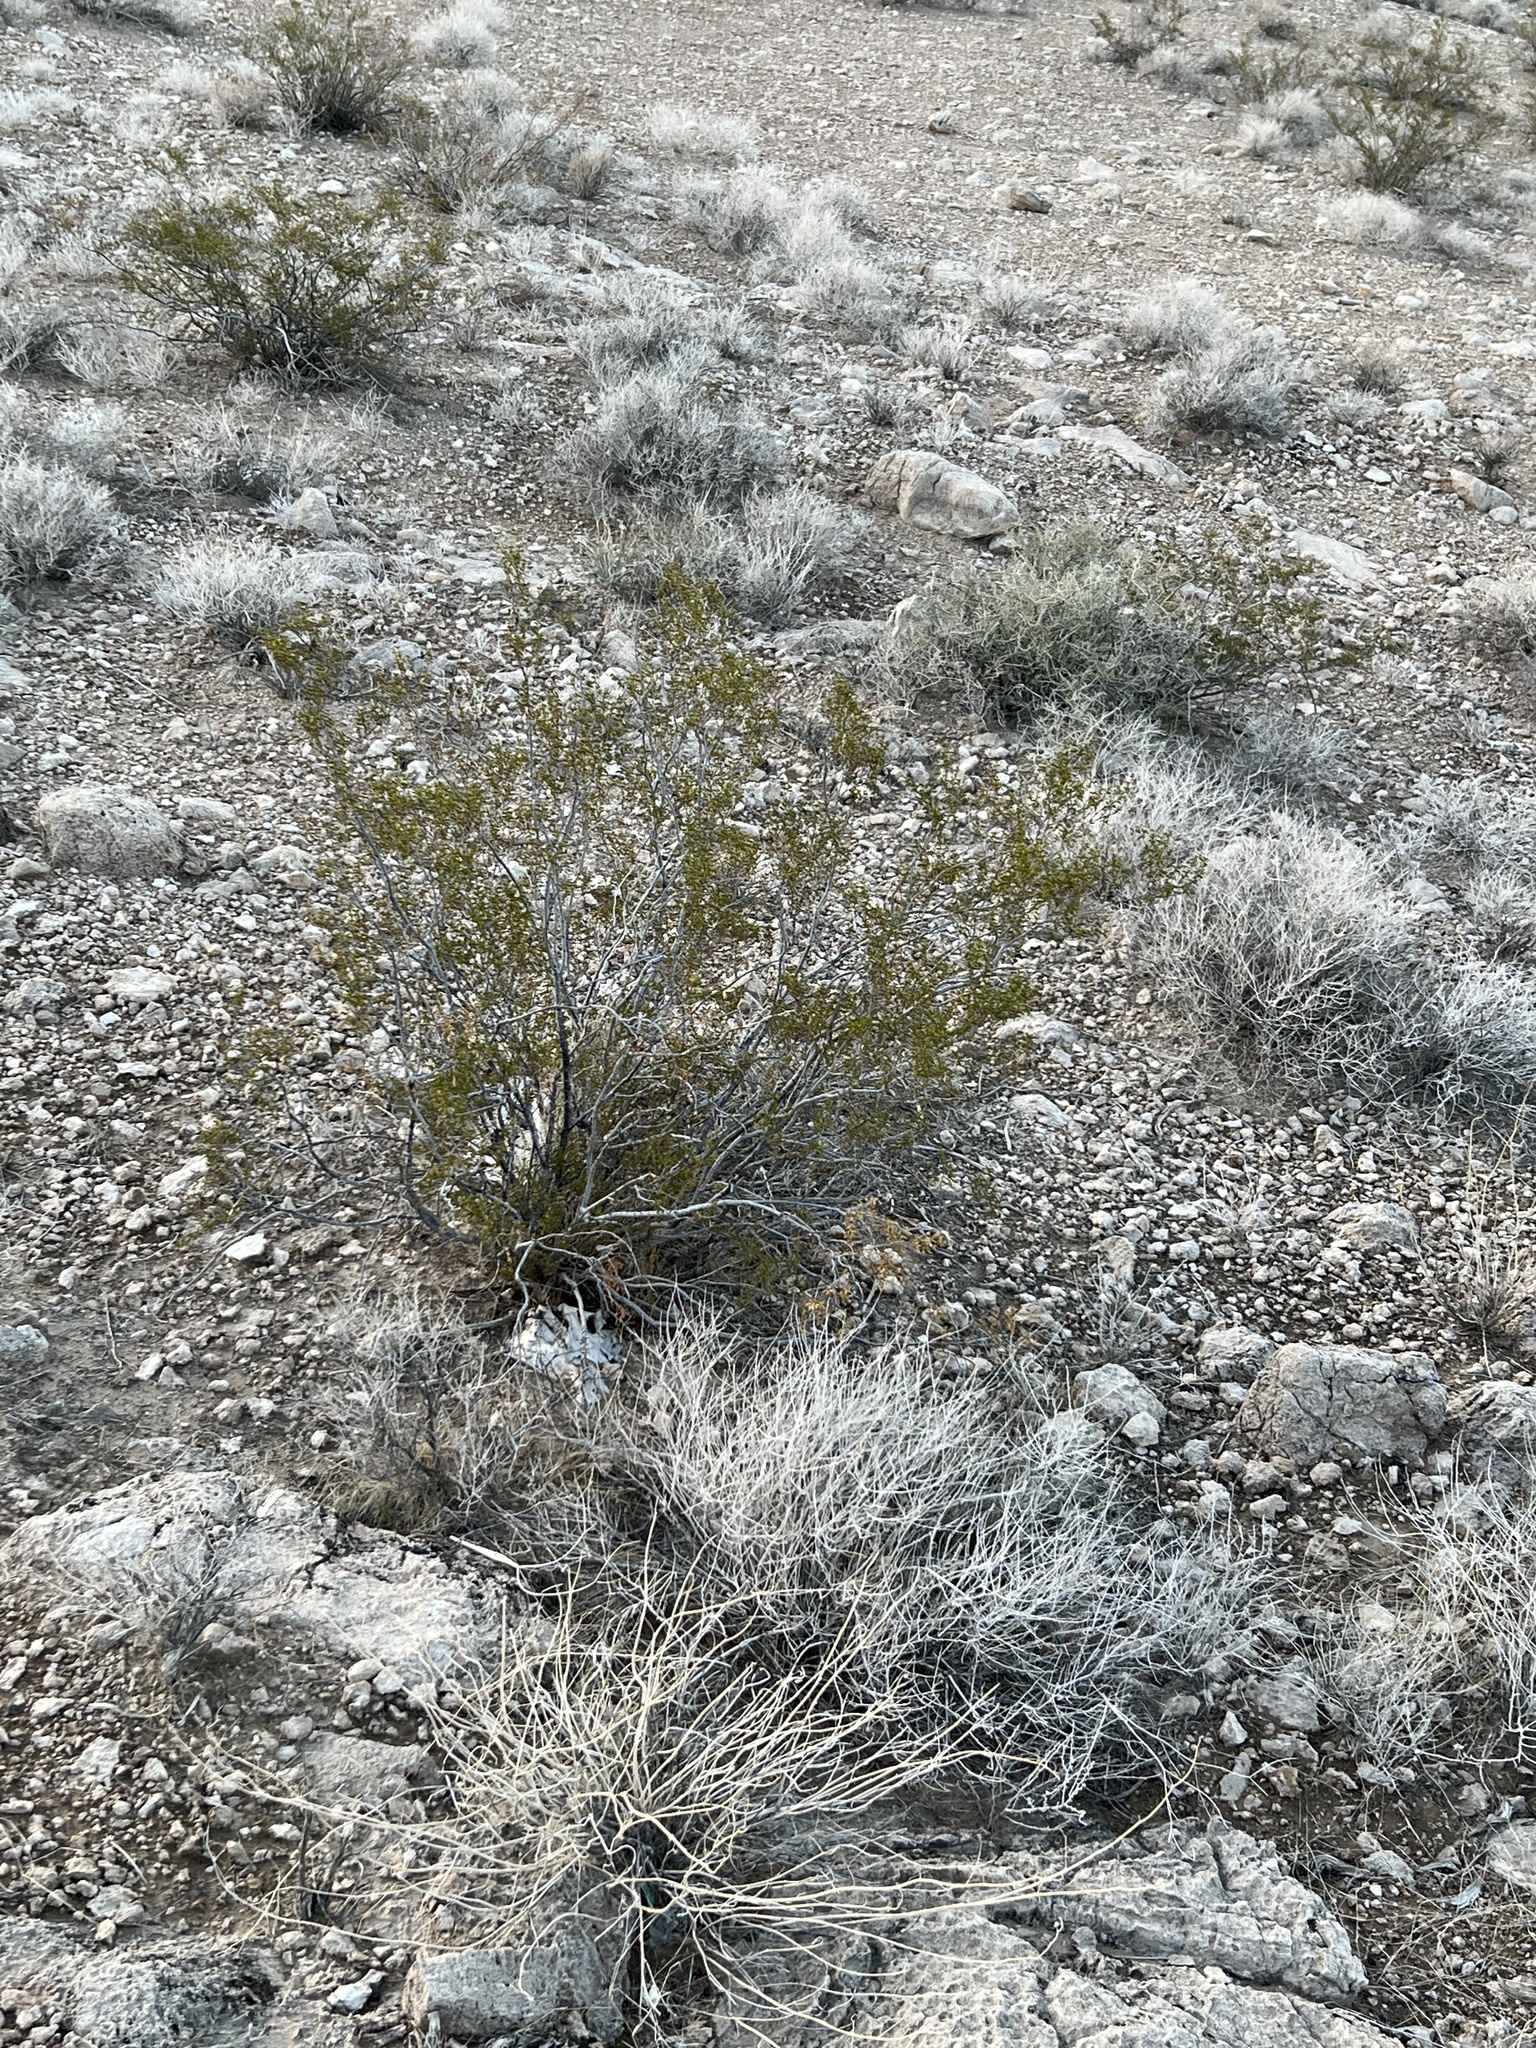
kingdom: Plantae
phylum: Tracheophyta
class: Magnoliopsida
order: Zygophyllales
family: Zygophyllaceae
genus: Larrea
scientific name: Larrea tridentata
